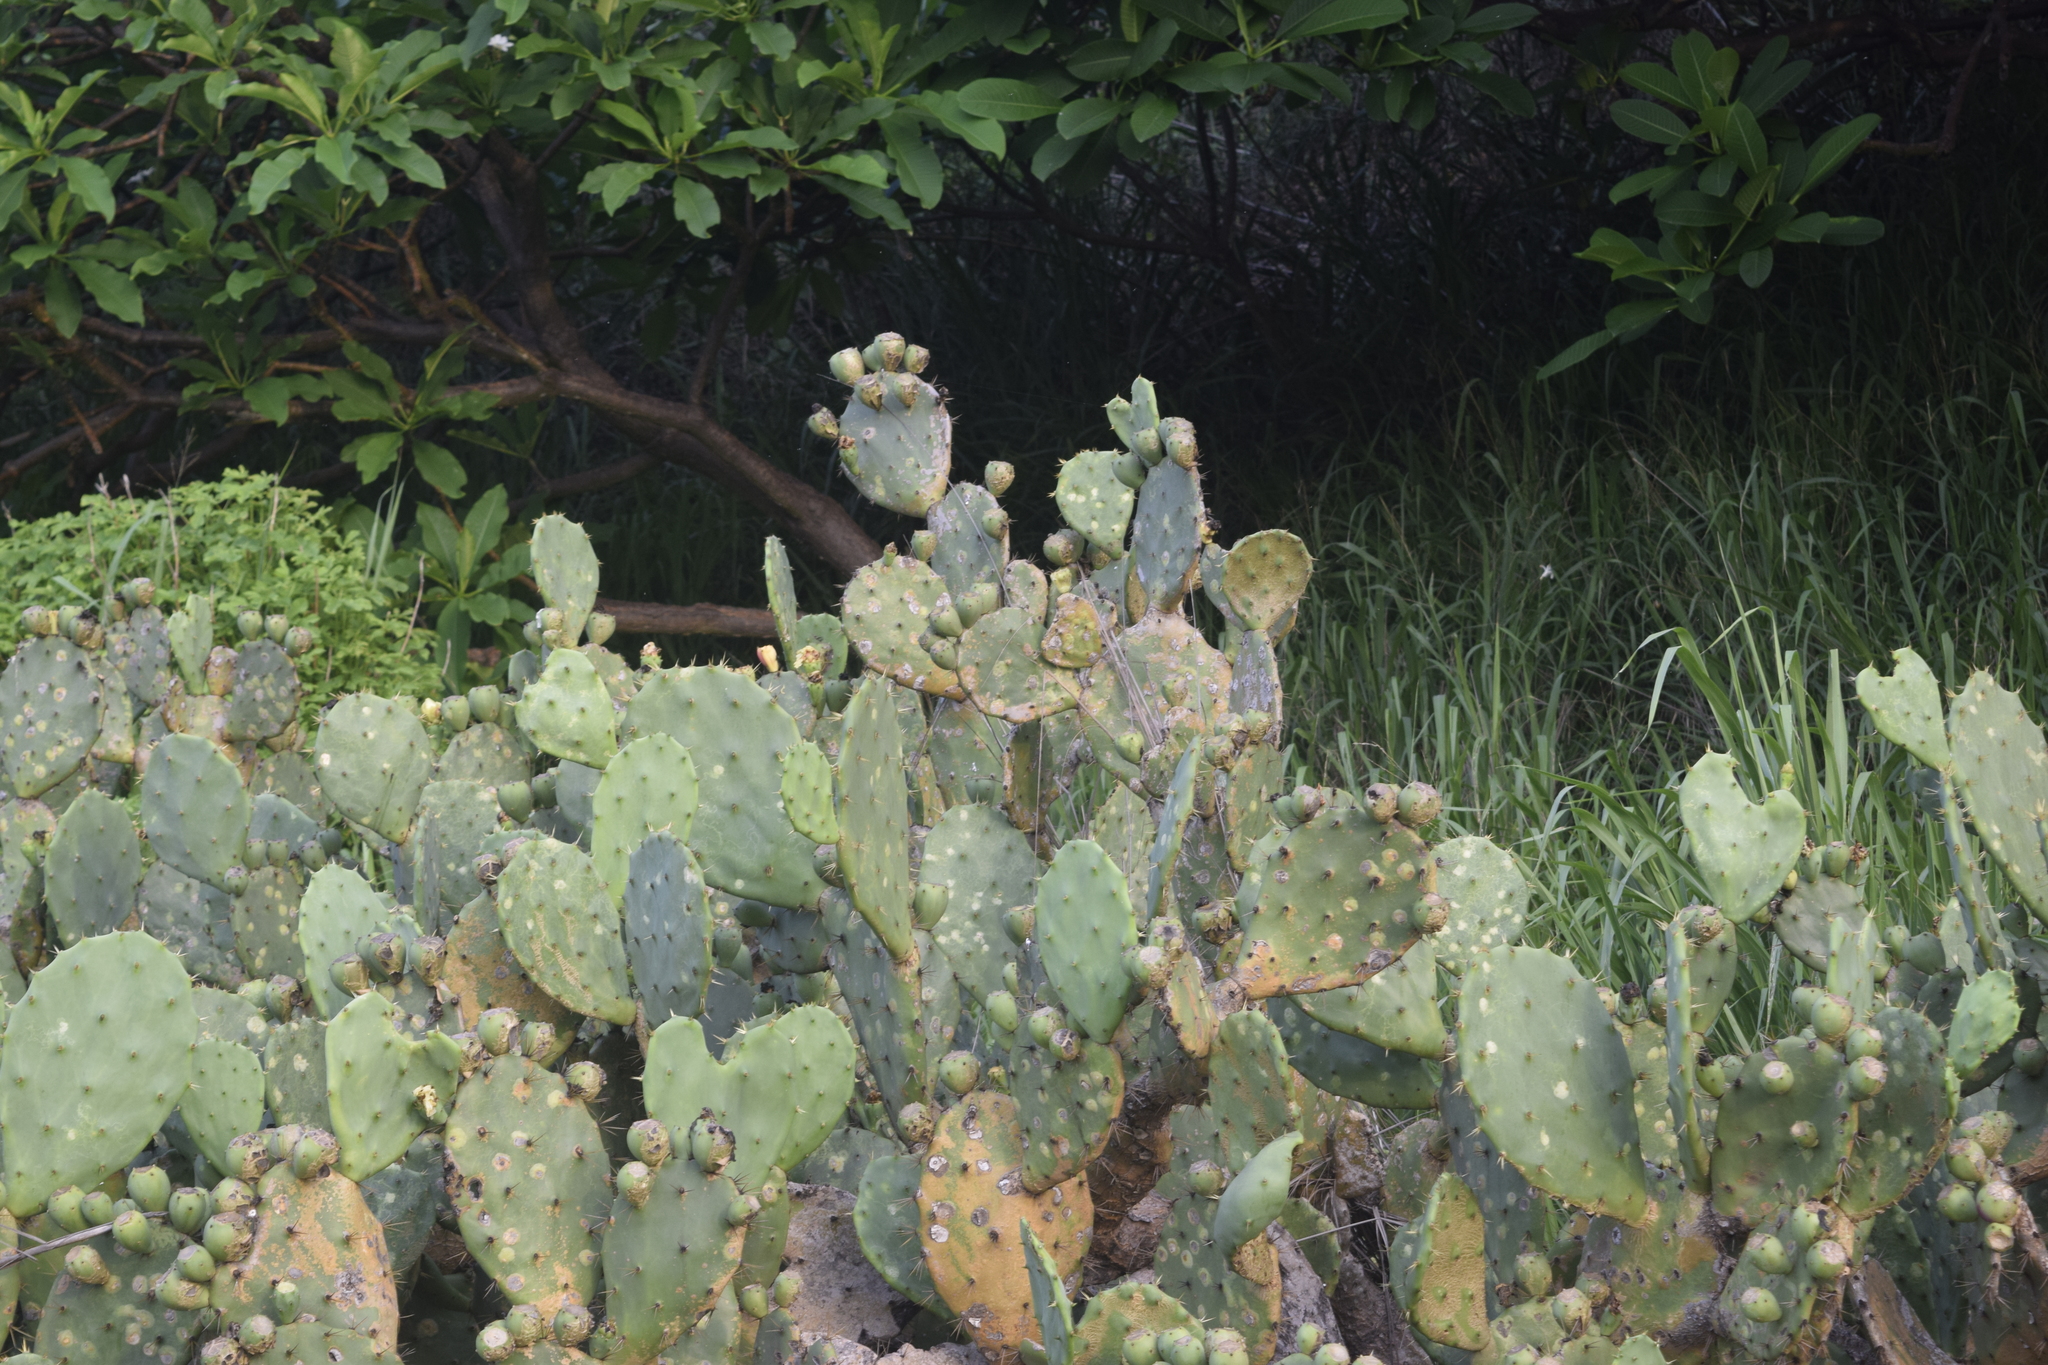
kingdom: Plantae
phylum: Tracheophyta
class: Magnoliopsida
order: Caryophyllales
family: Cactaceae
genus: Opuntia
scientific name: Opuntia stricta
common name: Erect pricklypear
